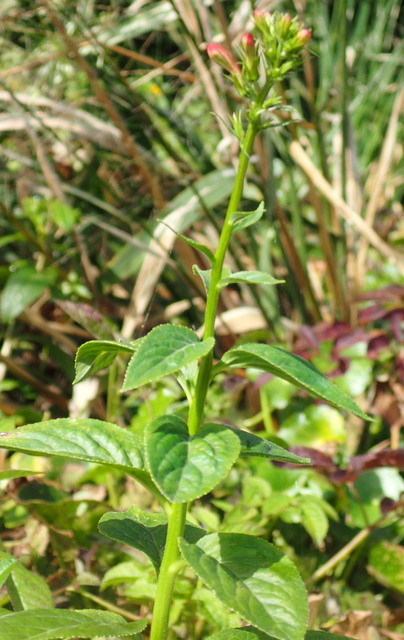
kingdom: Plantae
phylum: Tracheophyta
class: Magnoliopsida
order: Asterales
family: Campanulaceae
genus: Lobelia
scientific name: Lobelia cardinalis
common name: Cardinal flower
